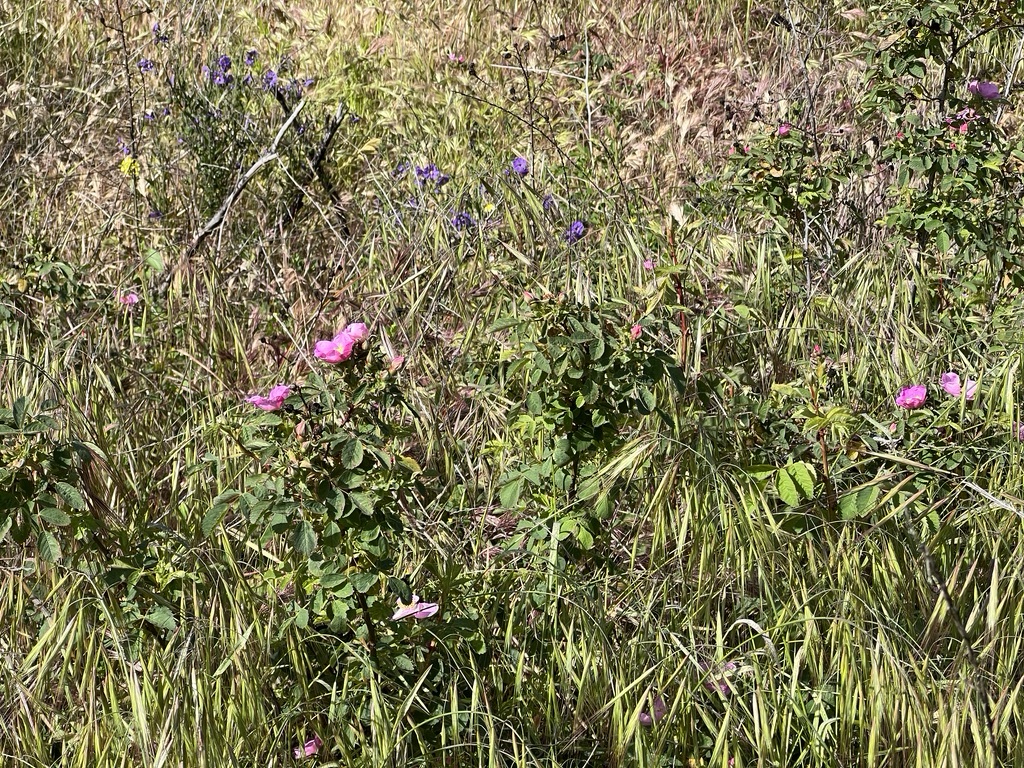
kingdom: Plantae
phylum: Tracheophyta
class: Magnoliopsida
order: Rosales
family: Rosaceae
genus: Rosa
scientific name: Rosa californica
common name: California rose
